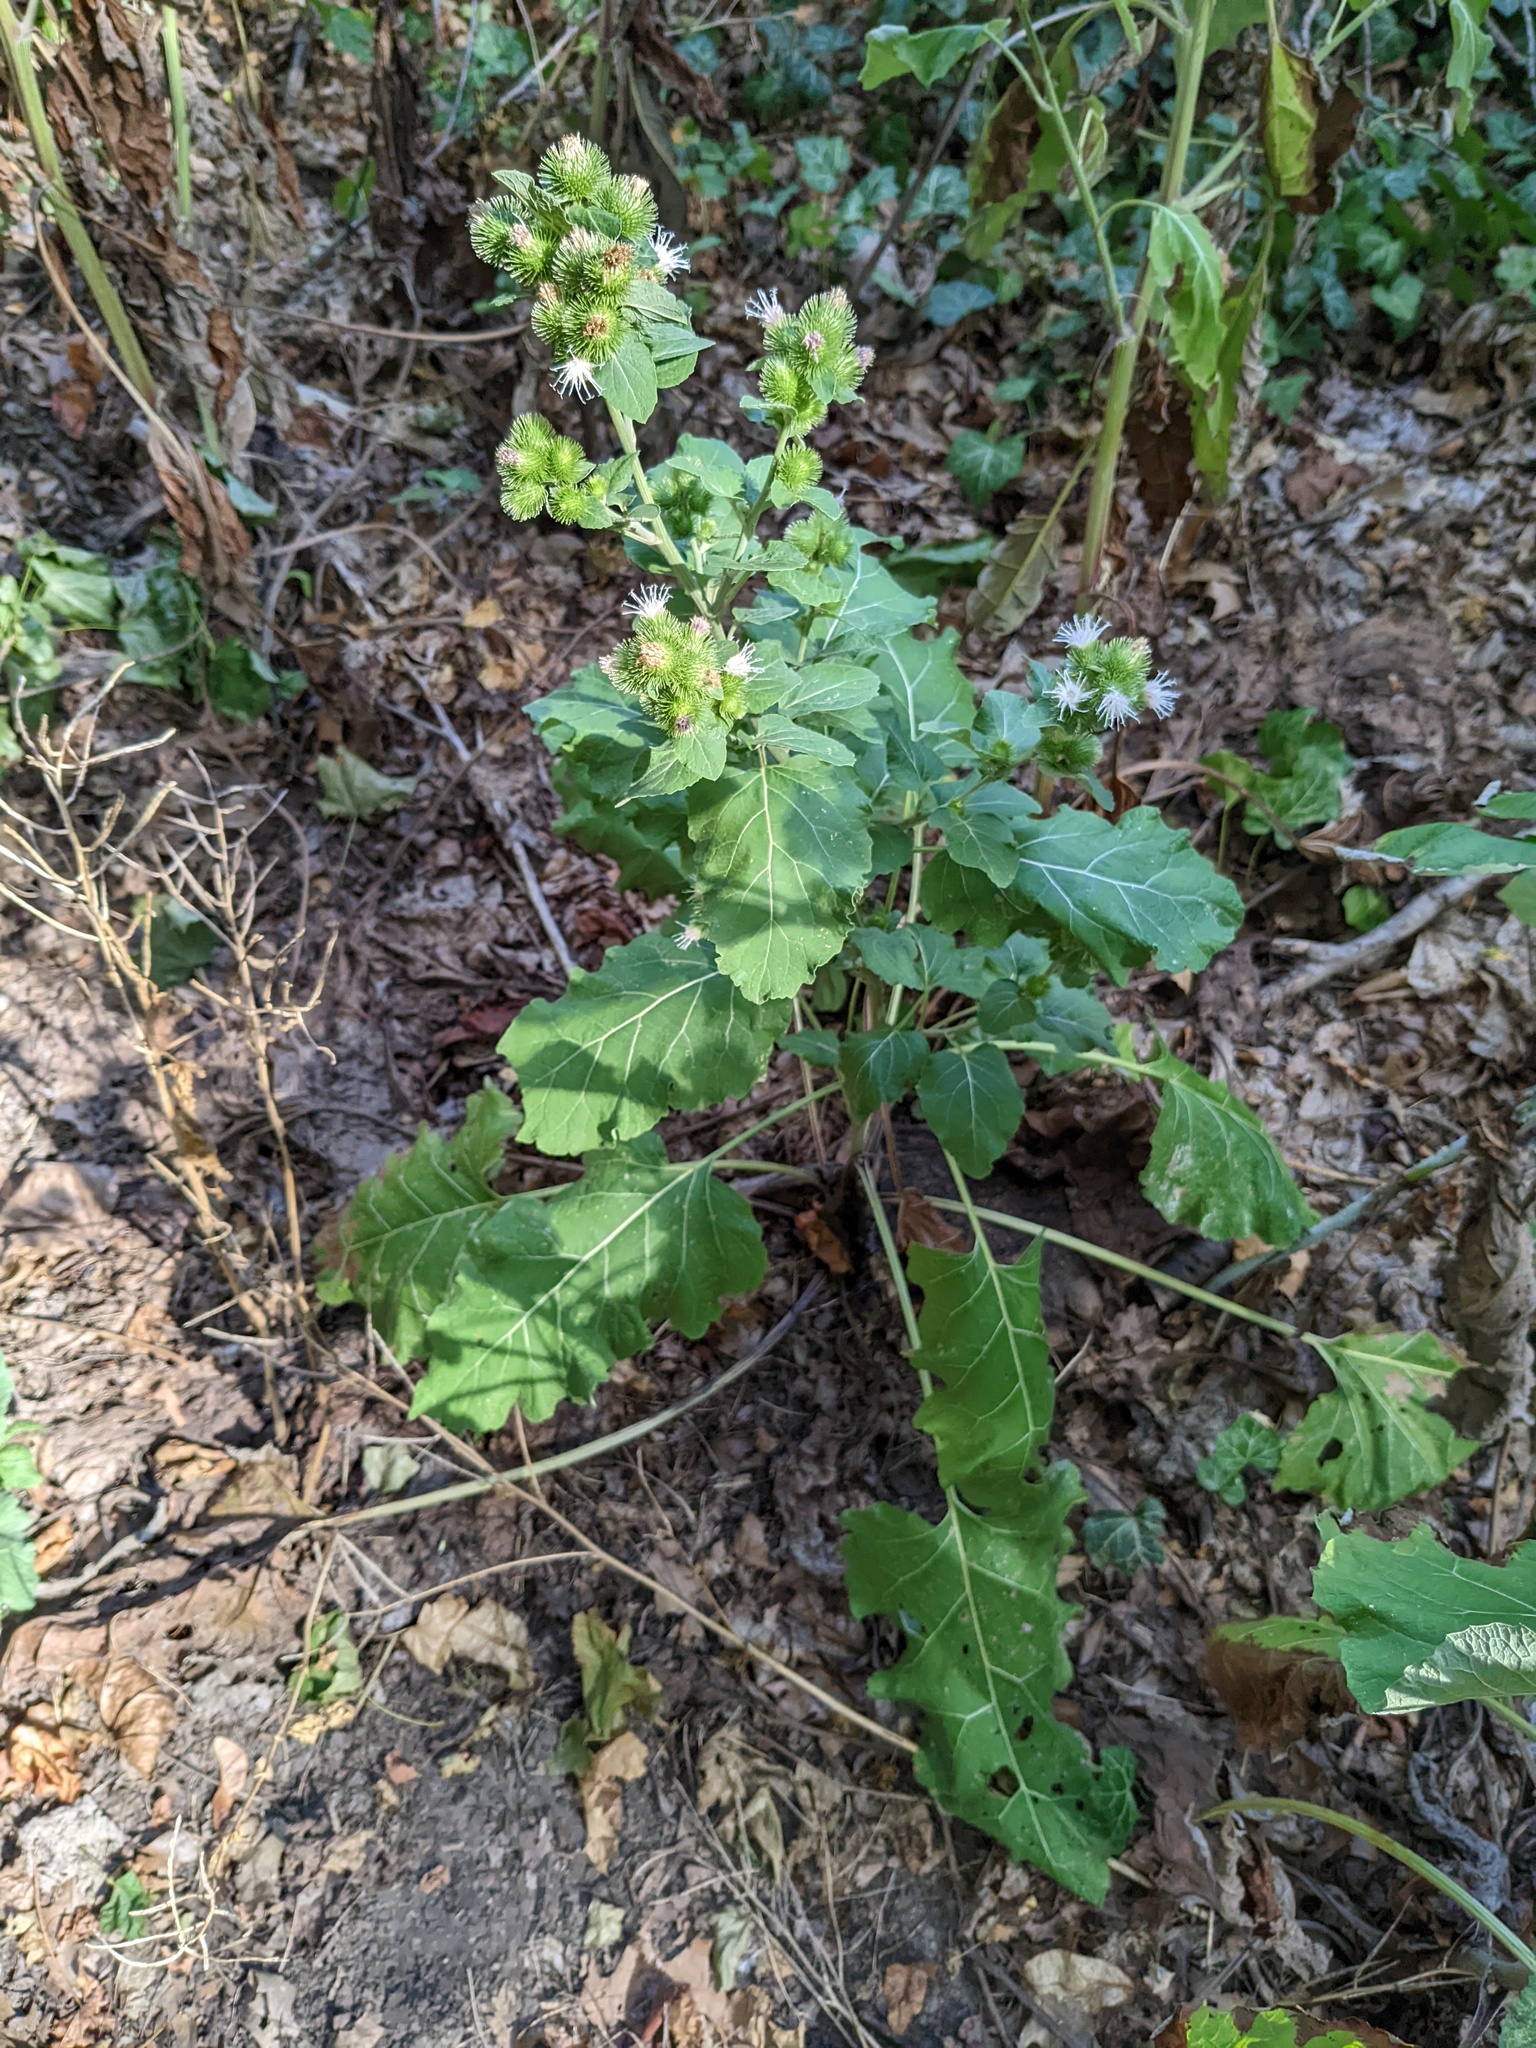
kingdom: Plantae
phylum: Tracheophyta
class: Magnoliopsida
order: Asterales
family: Asteraceae
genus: Arctium
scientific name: Arctium minus
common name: Lesser burdock
